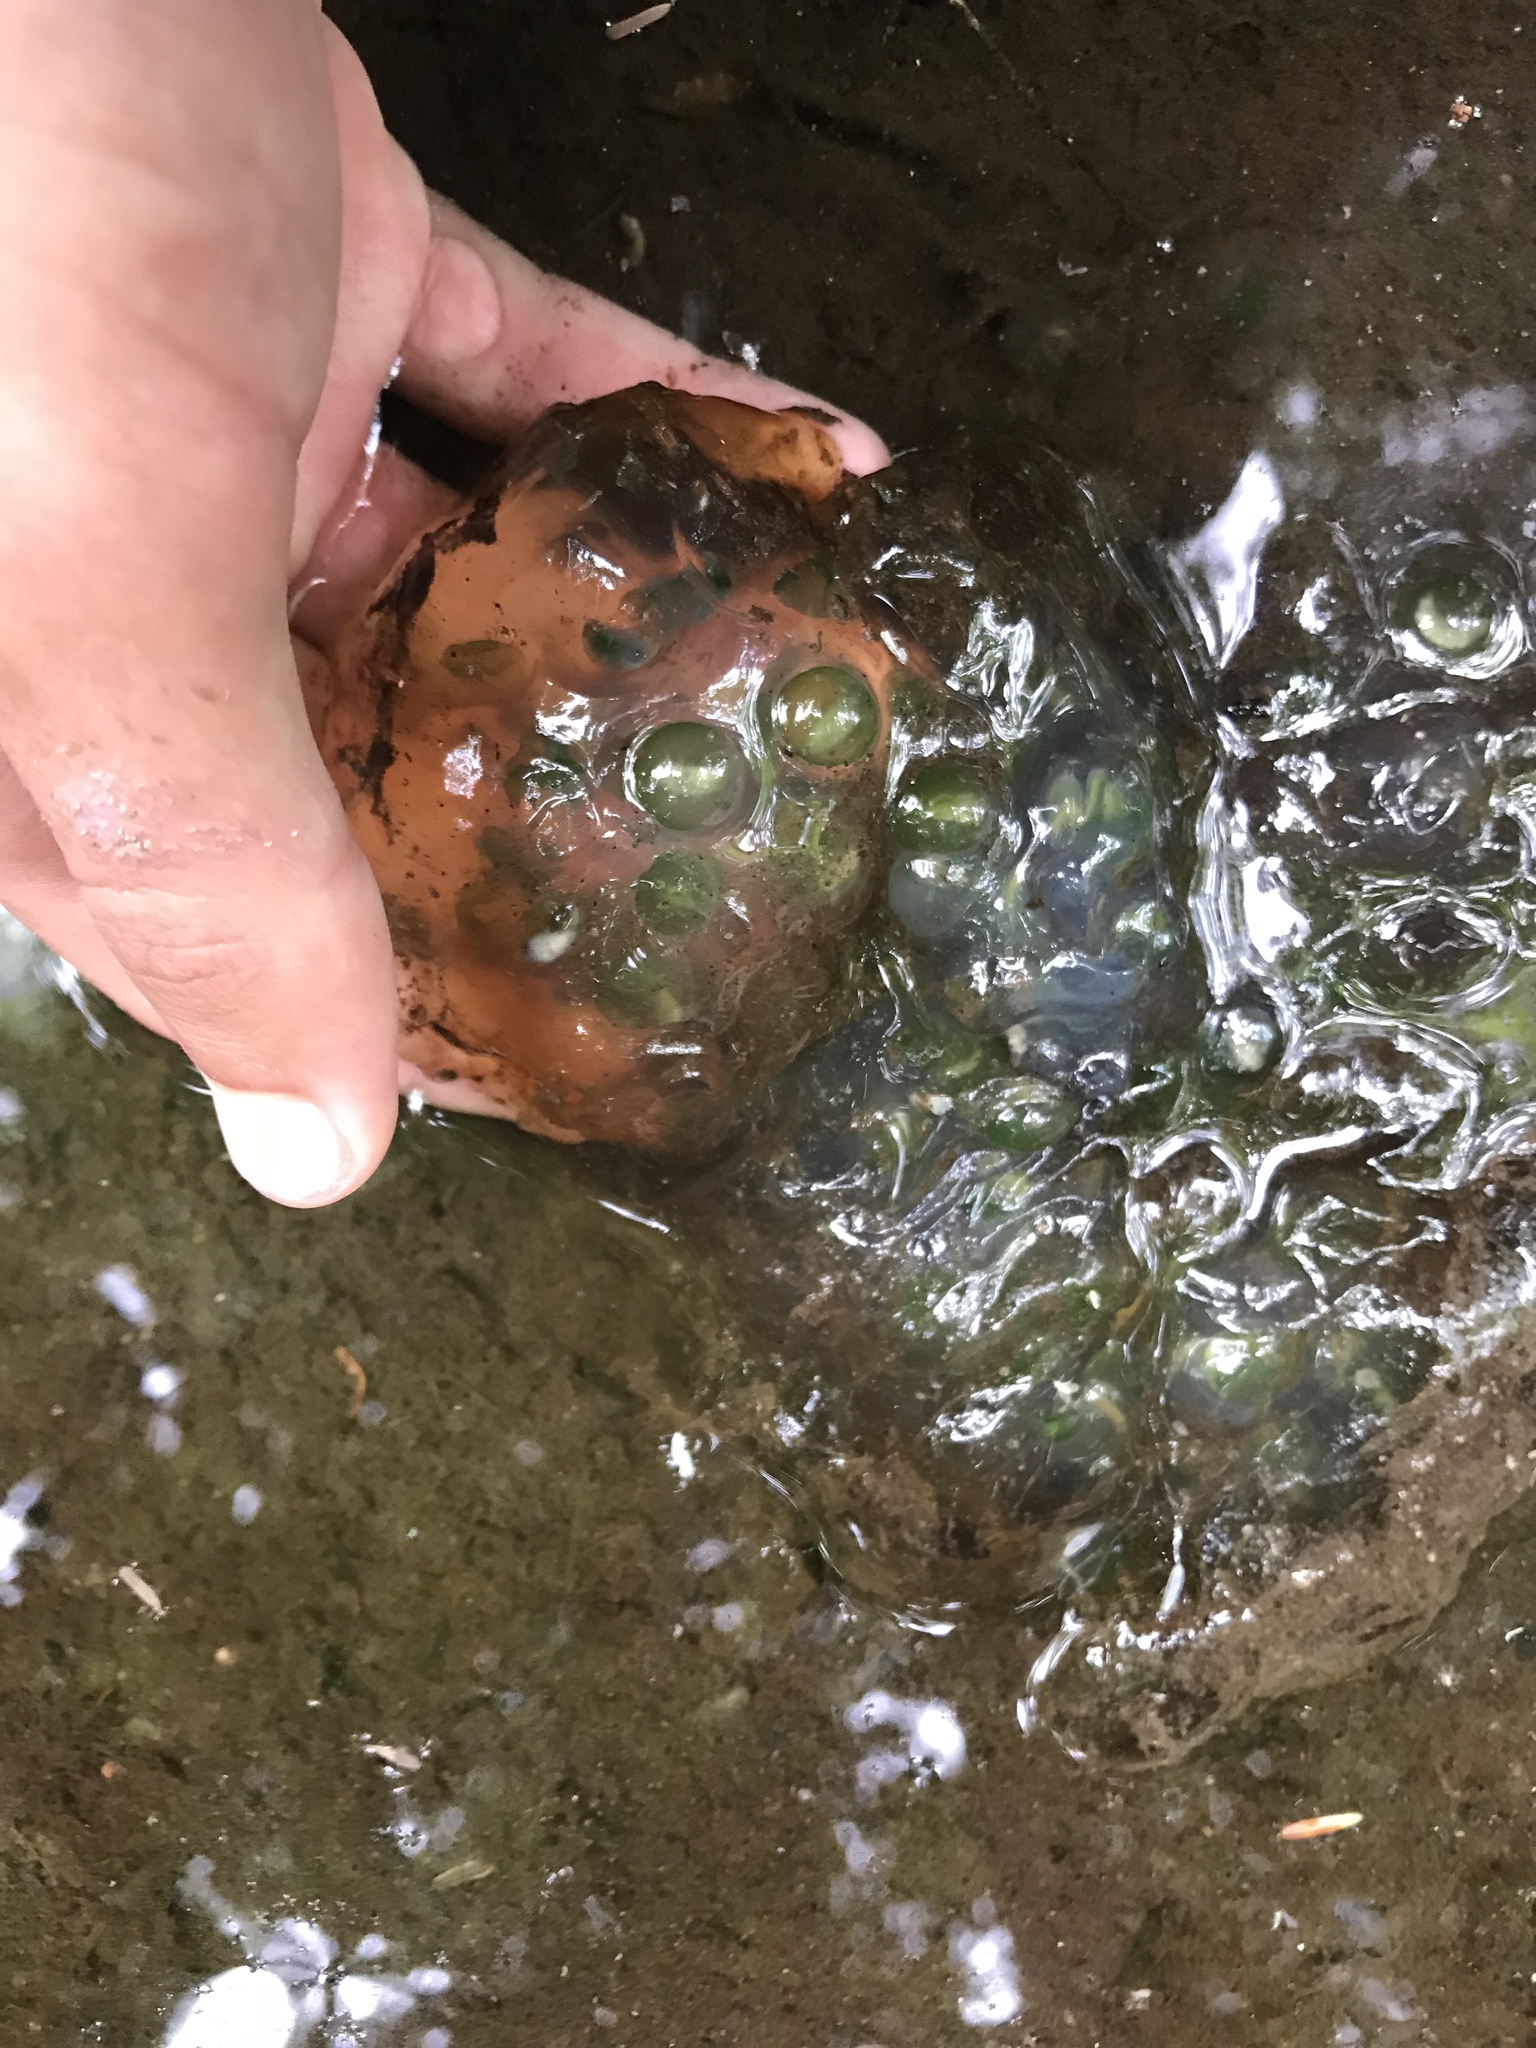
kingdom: Animalia
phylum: Chordata
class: Amphibia
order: Caudata
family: Ambystomatidae
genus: Ambystoma
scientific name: Ambystoma maculatum
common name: Spotted salamander
